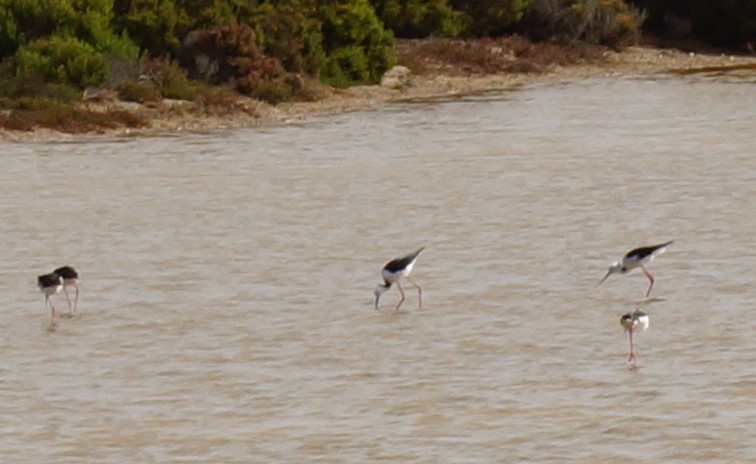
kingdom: Animalia
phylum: Chordata
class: Aves
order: Charadriiformes
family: Recurvirostridae
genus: Himantopus
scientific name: Himantopus leucocephalus
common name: White-headed stilt
